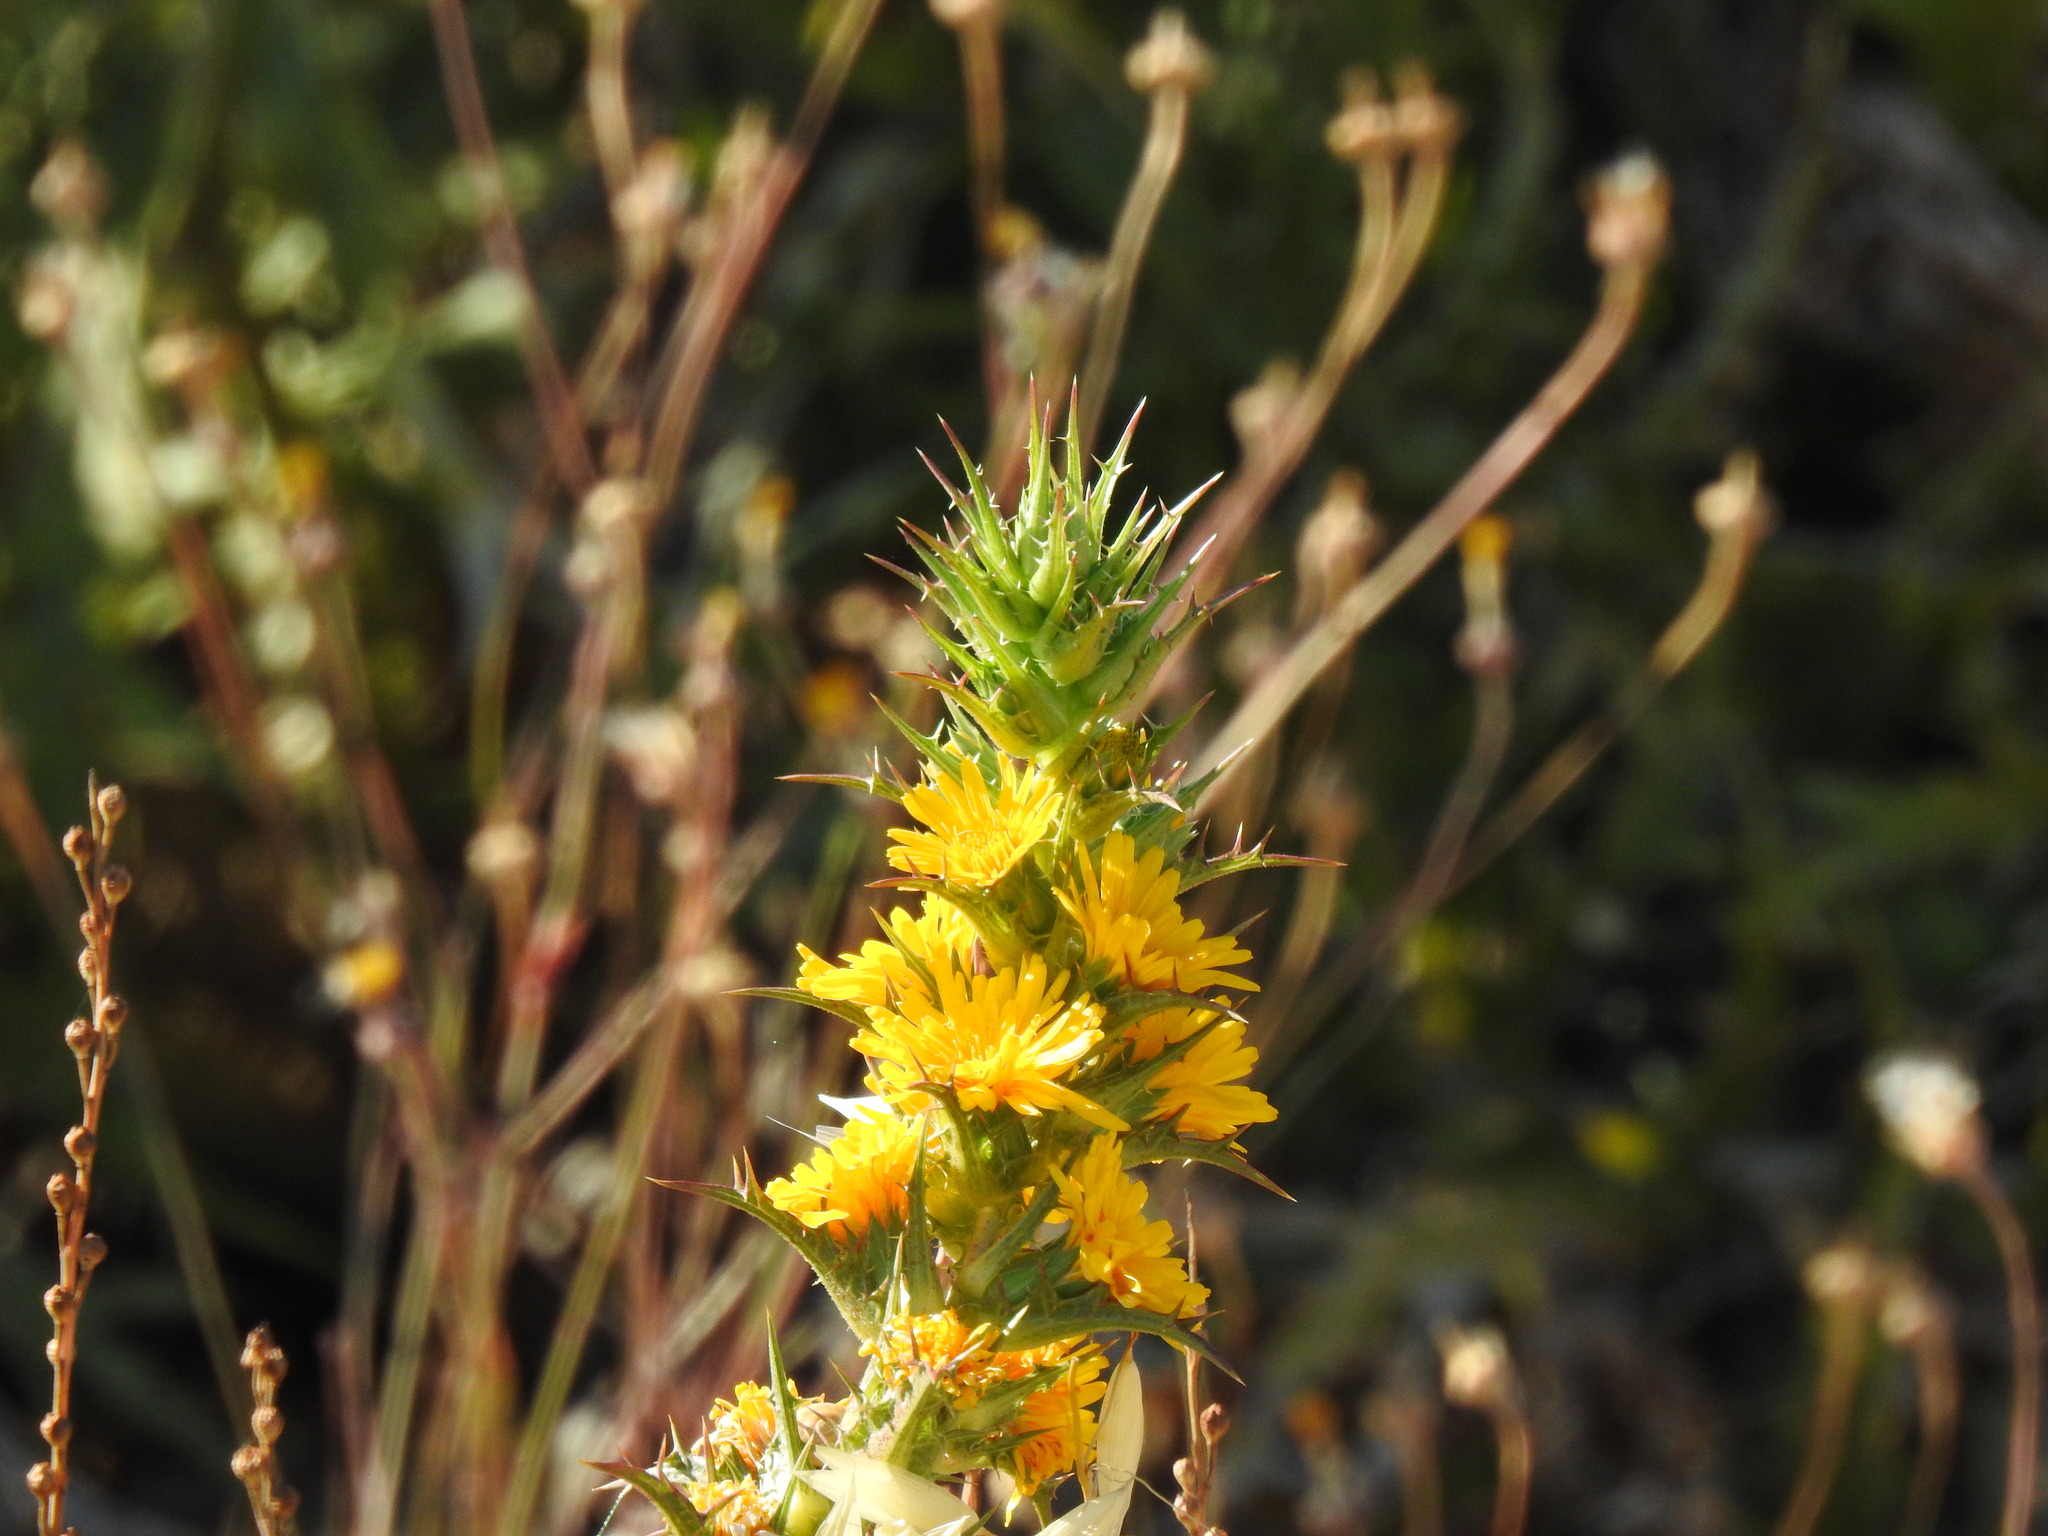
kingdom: Plantae
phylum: Tracheophyta
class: Magnoliopsida
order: Asterales
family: Asteraceae
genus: Scolymus
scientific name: Scolymus hispanicus
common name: Golden thistle
